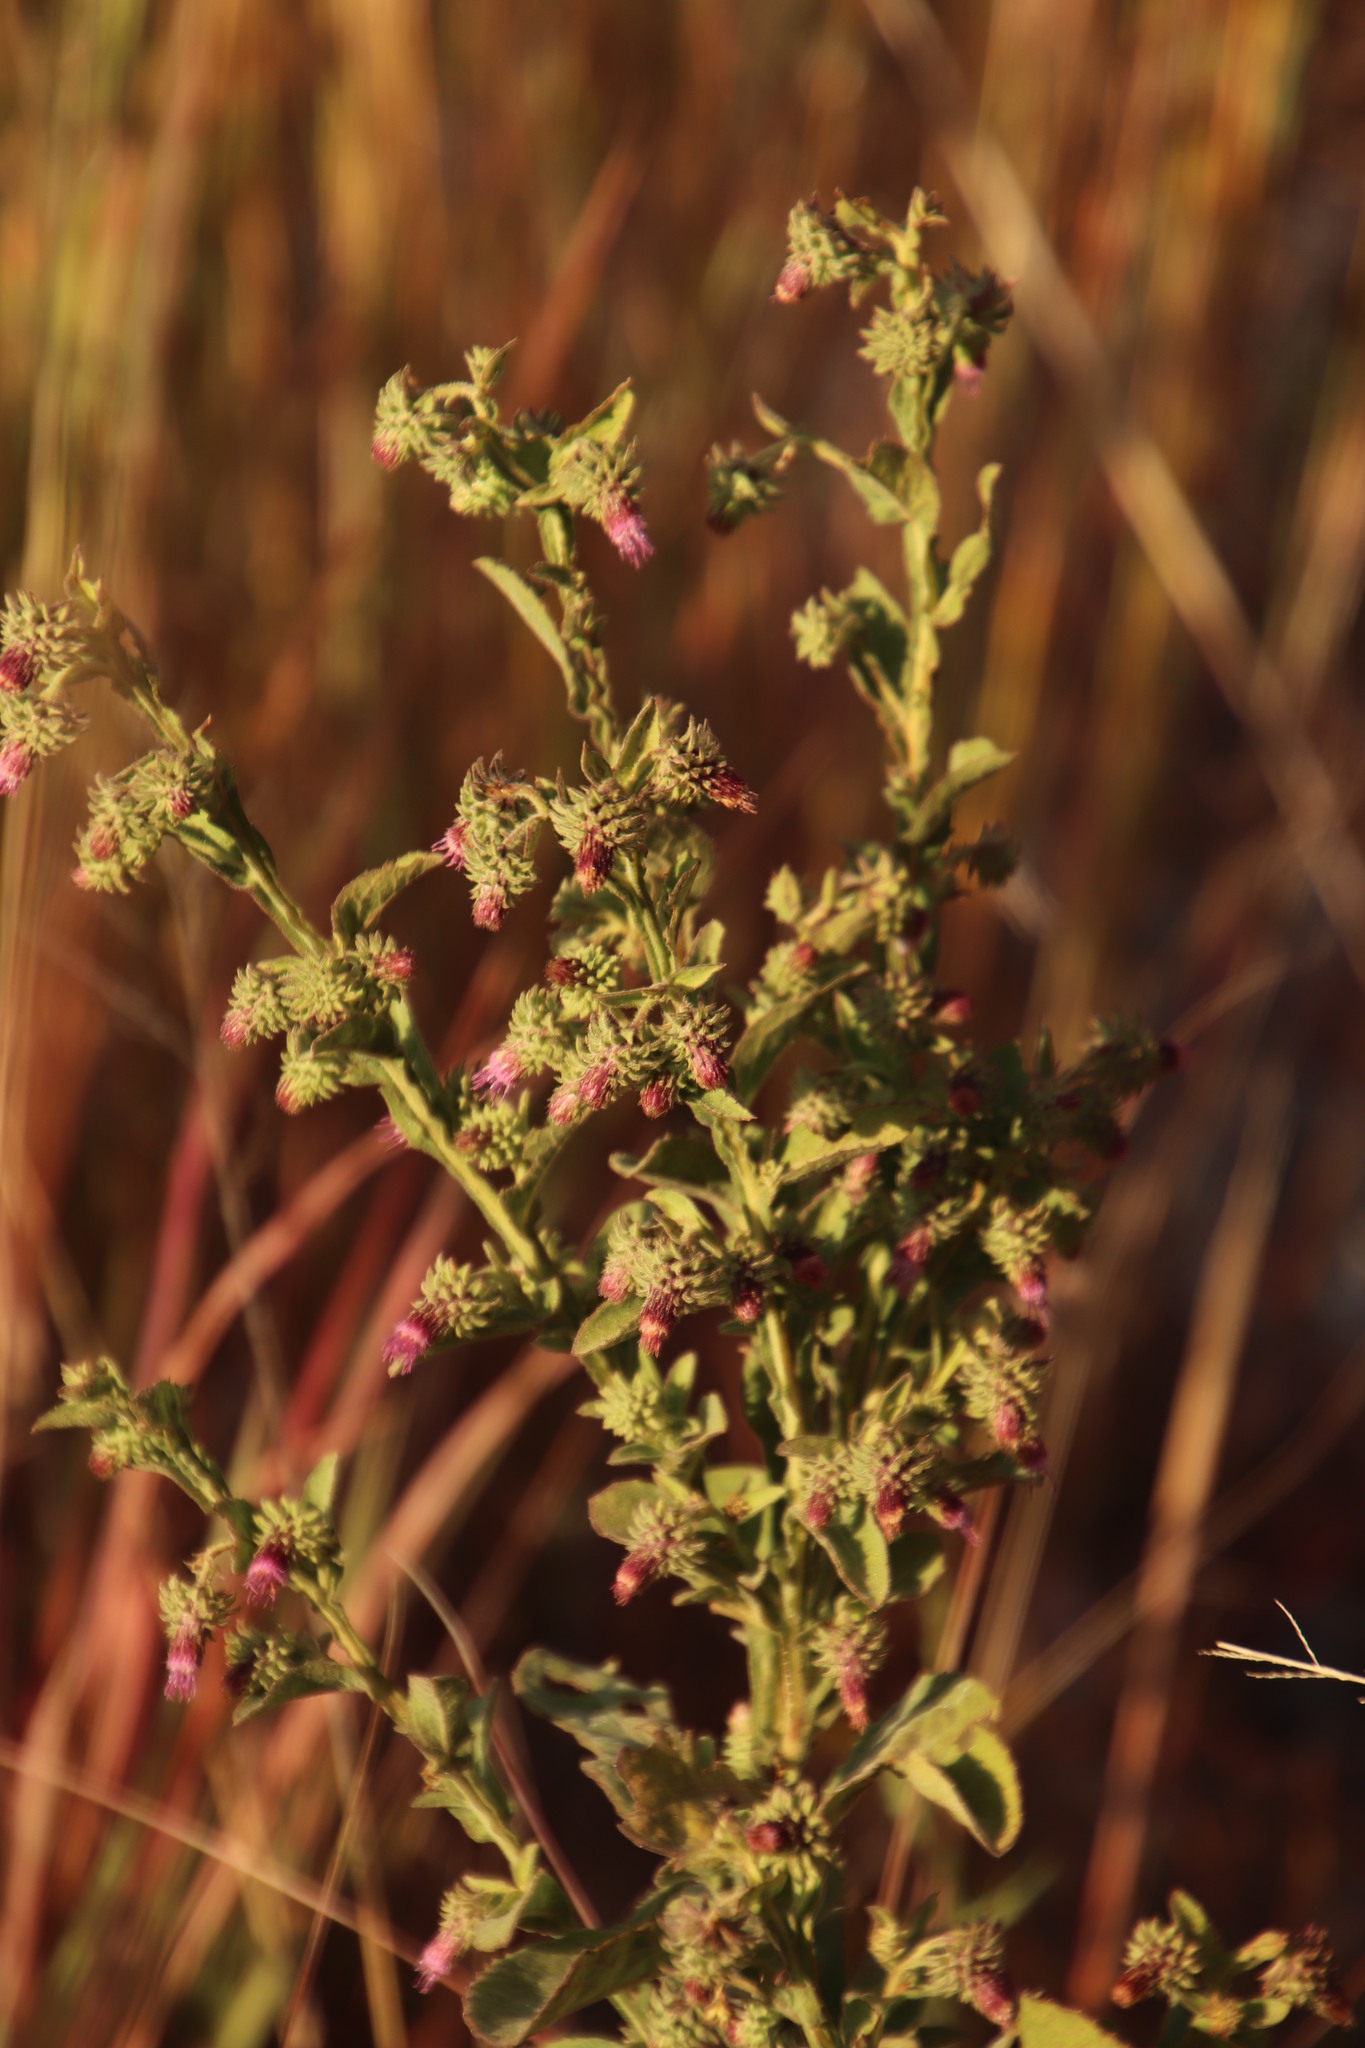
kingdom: Plantae
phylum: Tracheophyta
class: Magnoliopsida
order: Asterales
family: Asteraceae
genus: Laggera
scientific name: Laggera crispata
